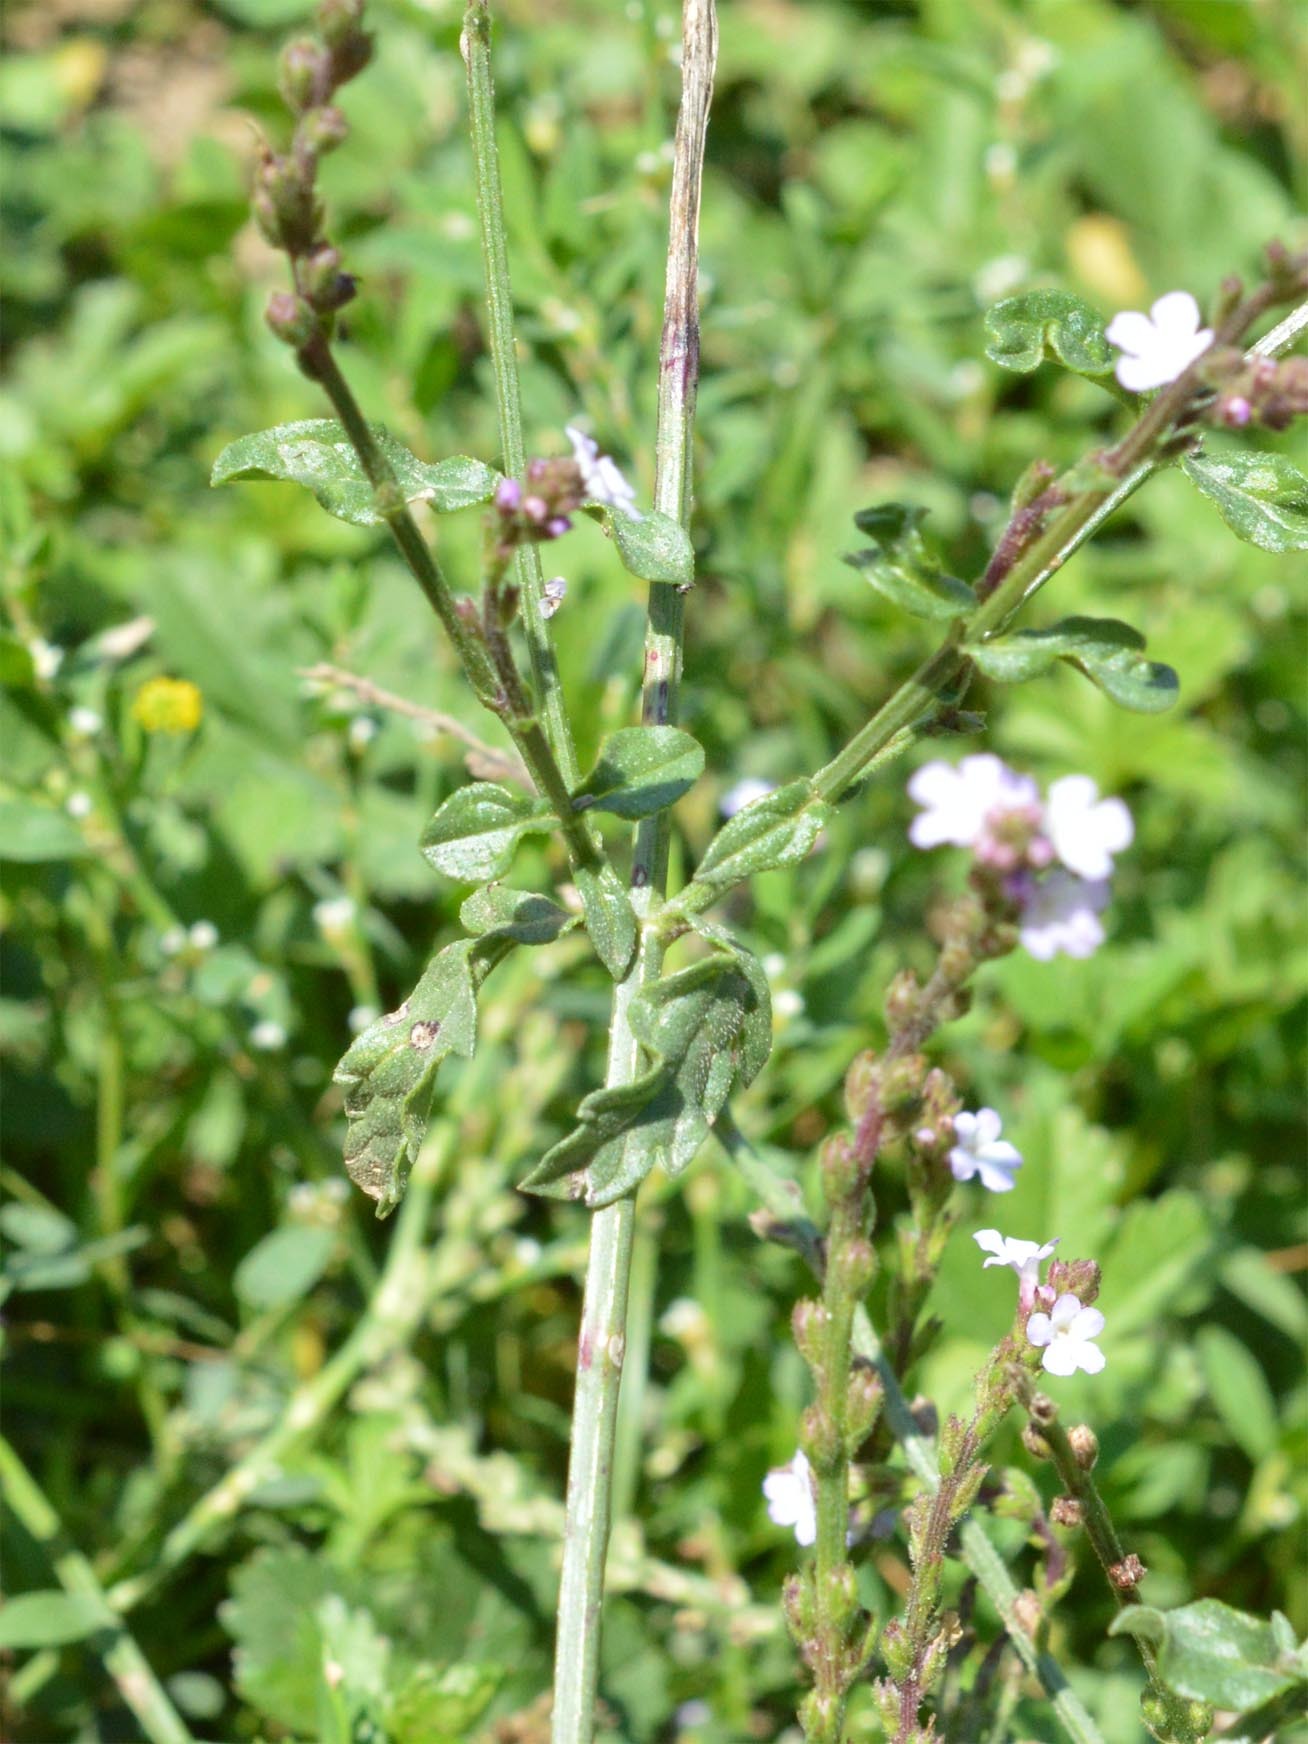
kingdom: Plantae
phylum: Tracheophyta
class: Magnoliopsida
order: Lamiales
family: Verbenaceae
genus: Verbena
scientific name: Verbena officinalis
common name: Vervain
